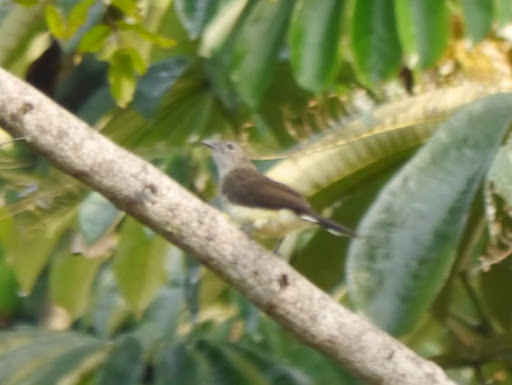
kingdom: Animalia
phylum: Chordata
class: Aves
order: Passeriformes
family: Pycnonotidae
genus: Thescelocichla
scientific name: Thescelocichla leucopleura
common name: Swamp palm bulbul
